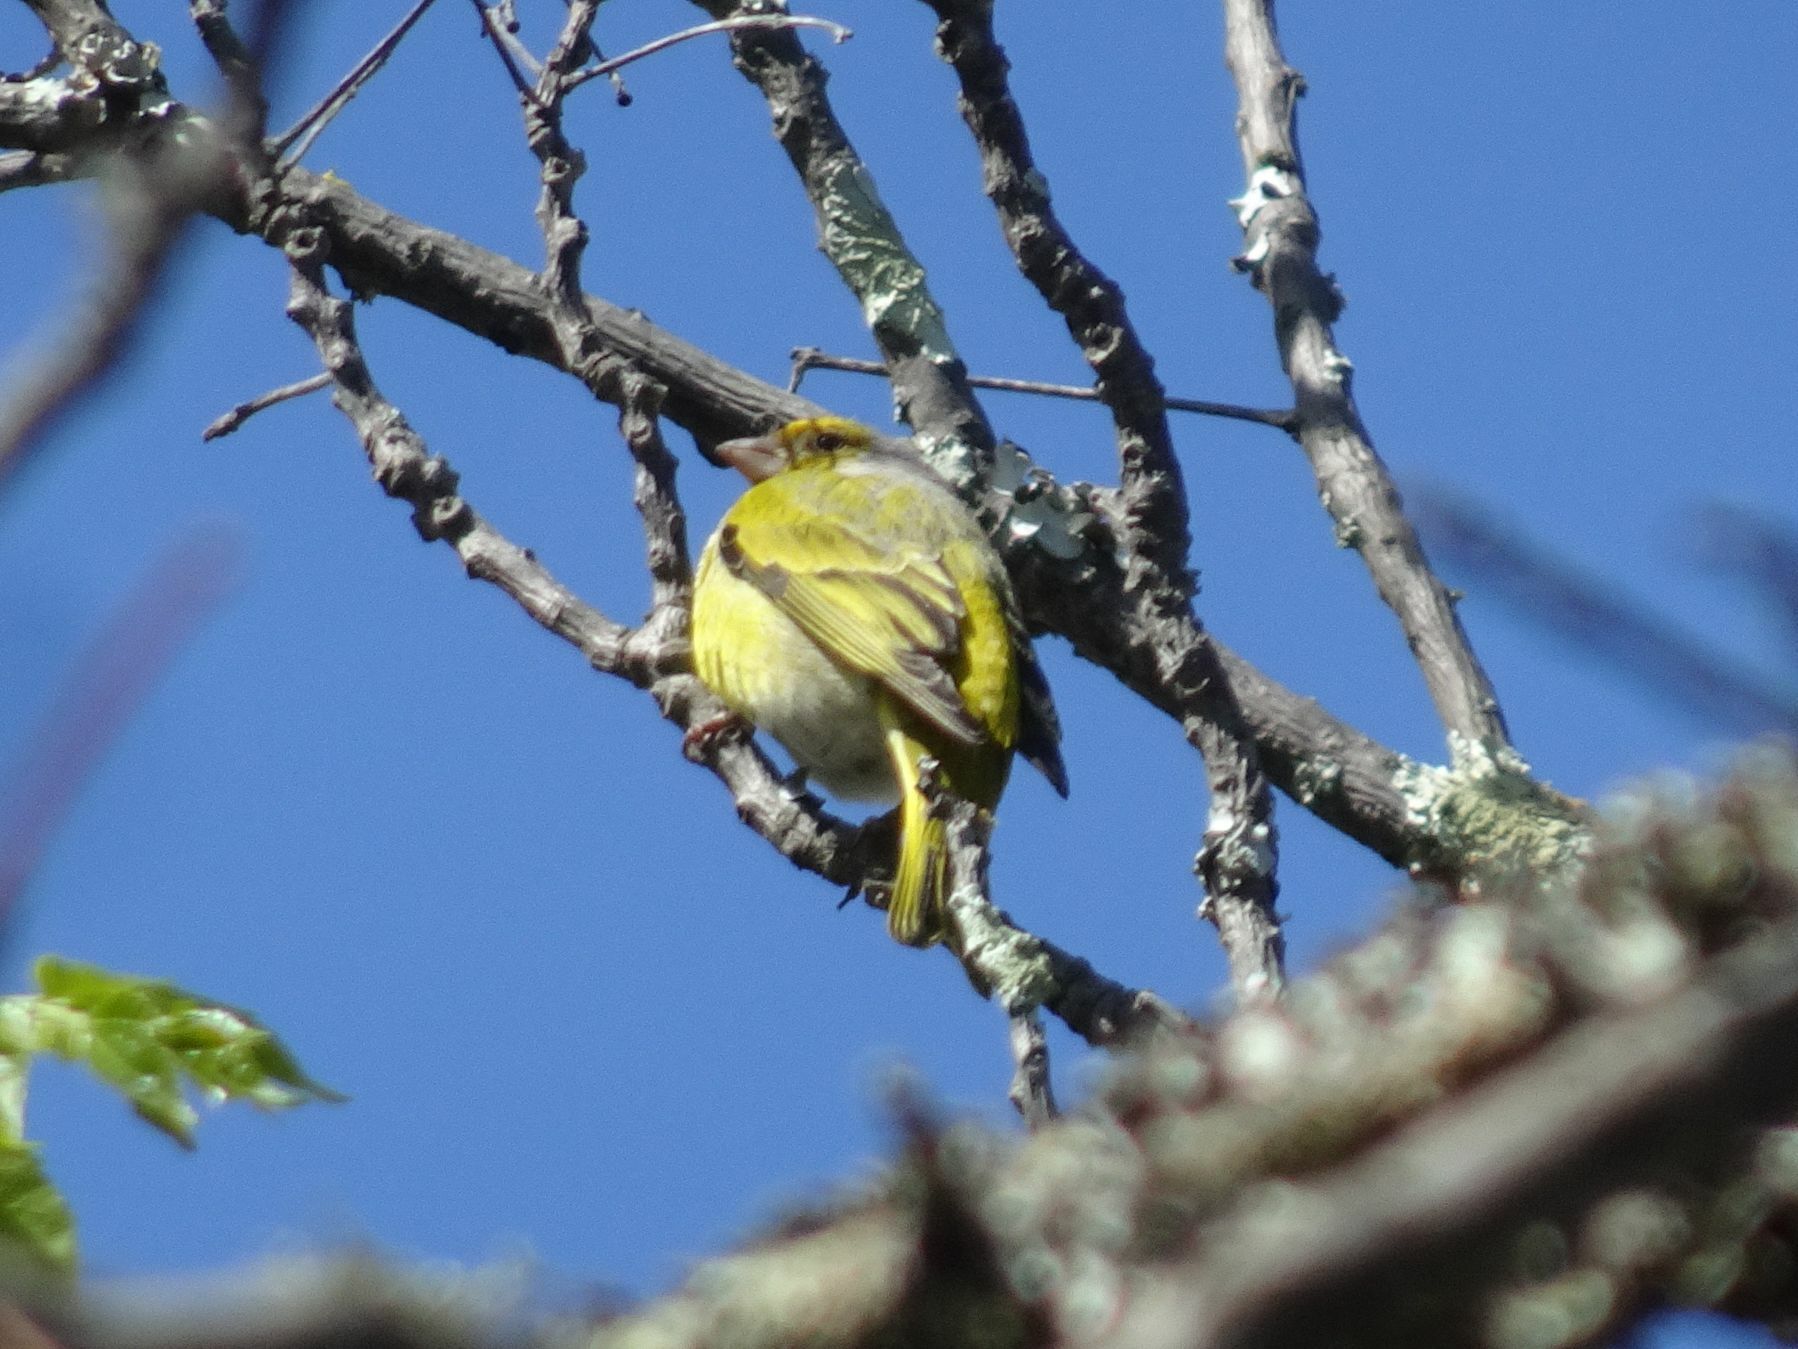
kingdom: Animalia
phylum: Chordata
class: Aves
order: Passeriformes
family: Fringillidae
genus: Serinus
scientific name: Serinus canicollis
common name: Cape canary
